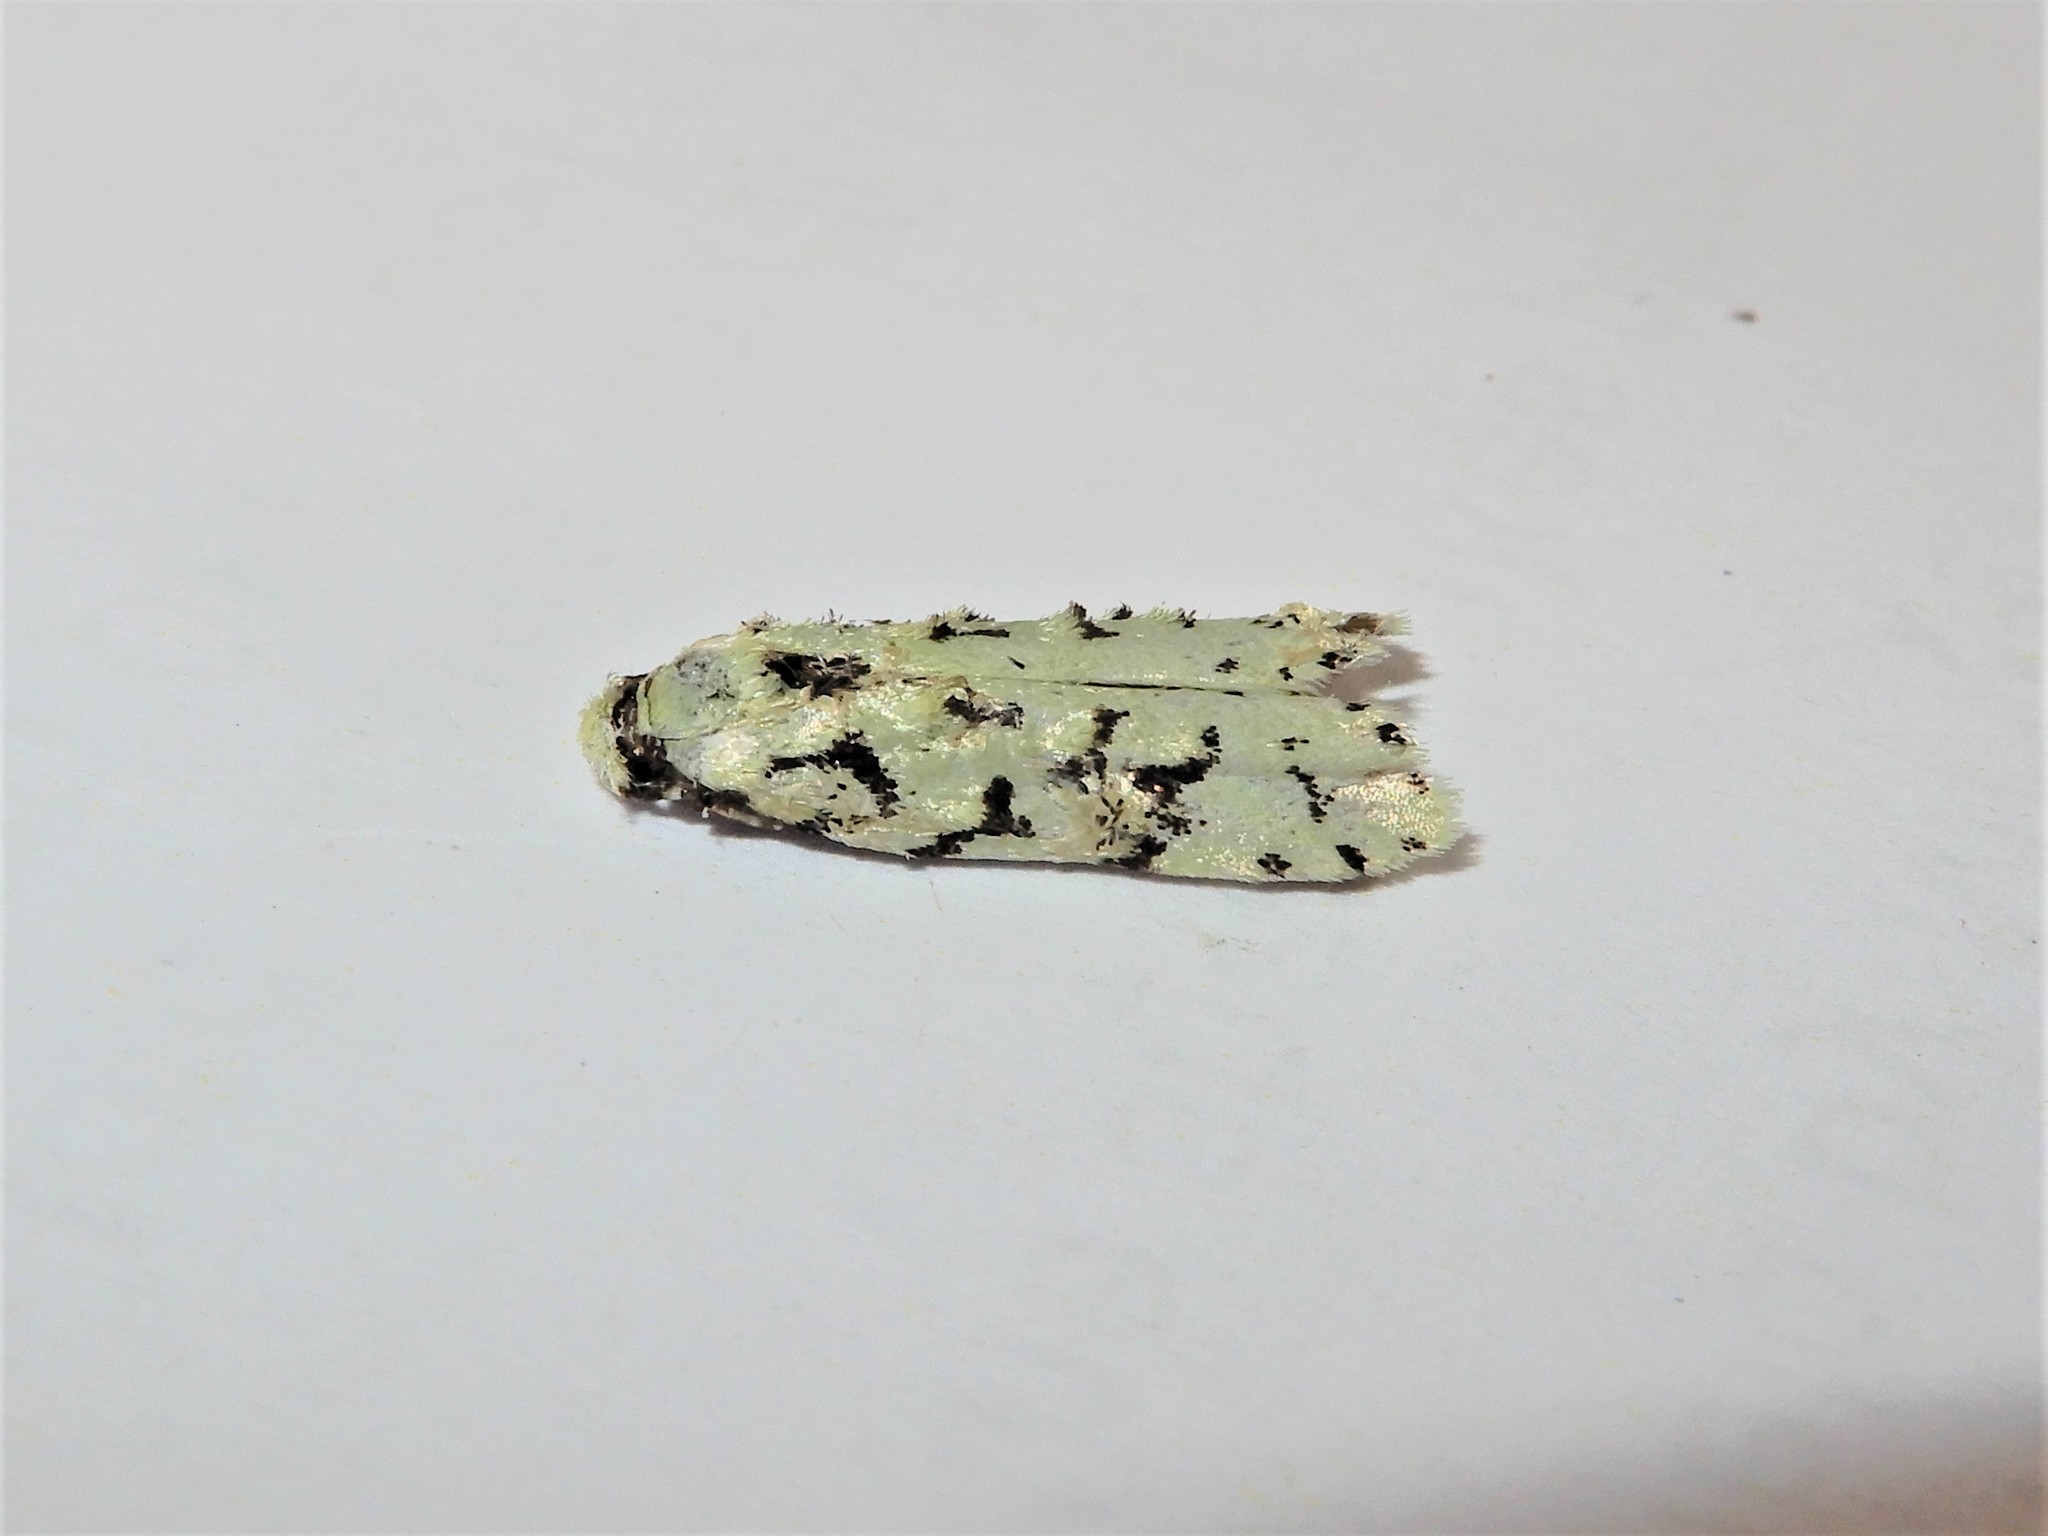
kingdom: Animalia
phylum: Arthropoda
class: Insecta
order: Lepidoptera
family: Oecophoridae
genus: Izatha
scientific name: Izatha peroneanella
